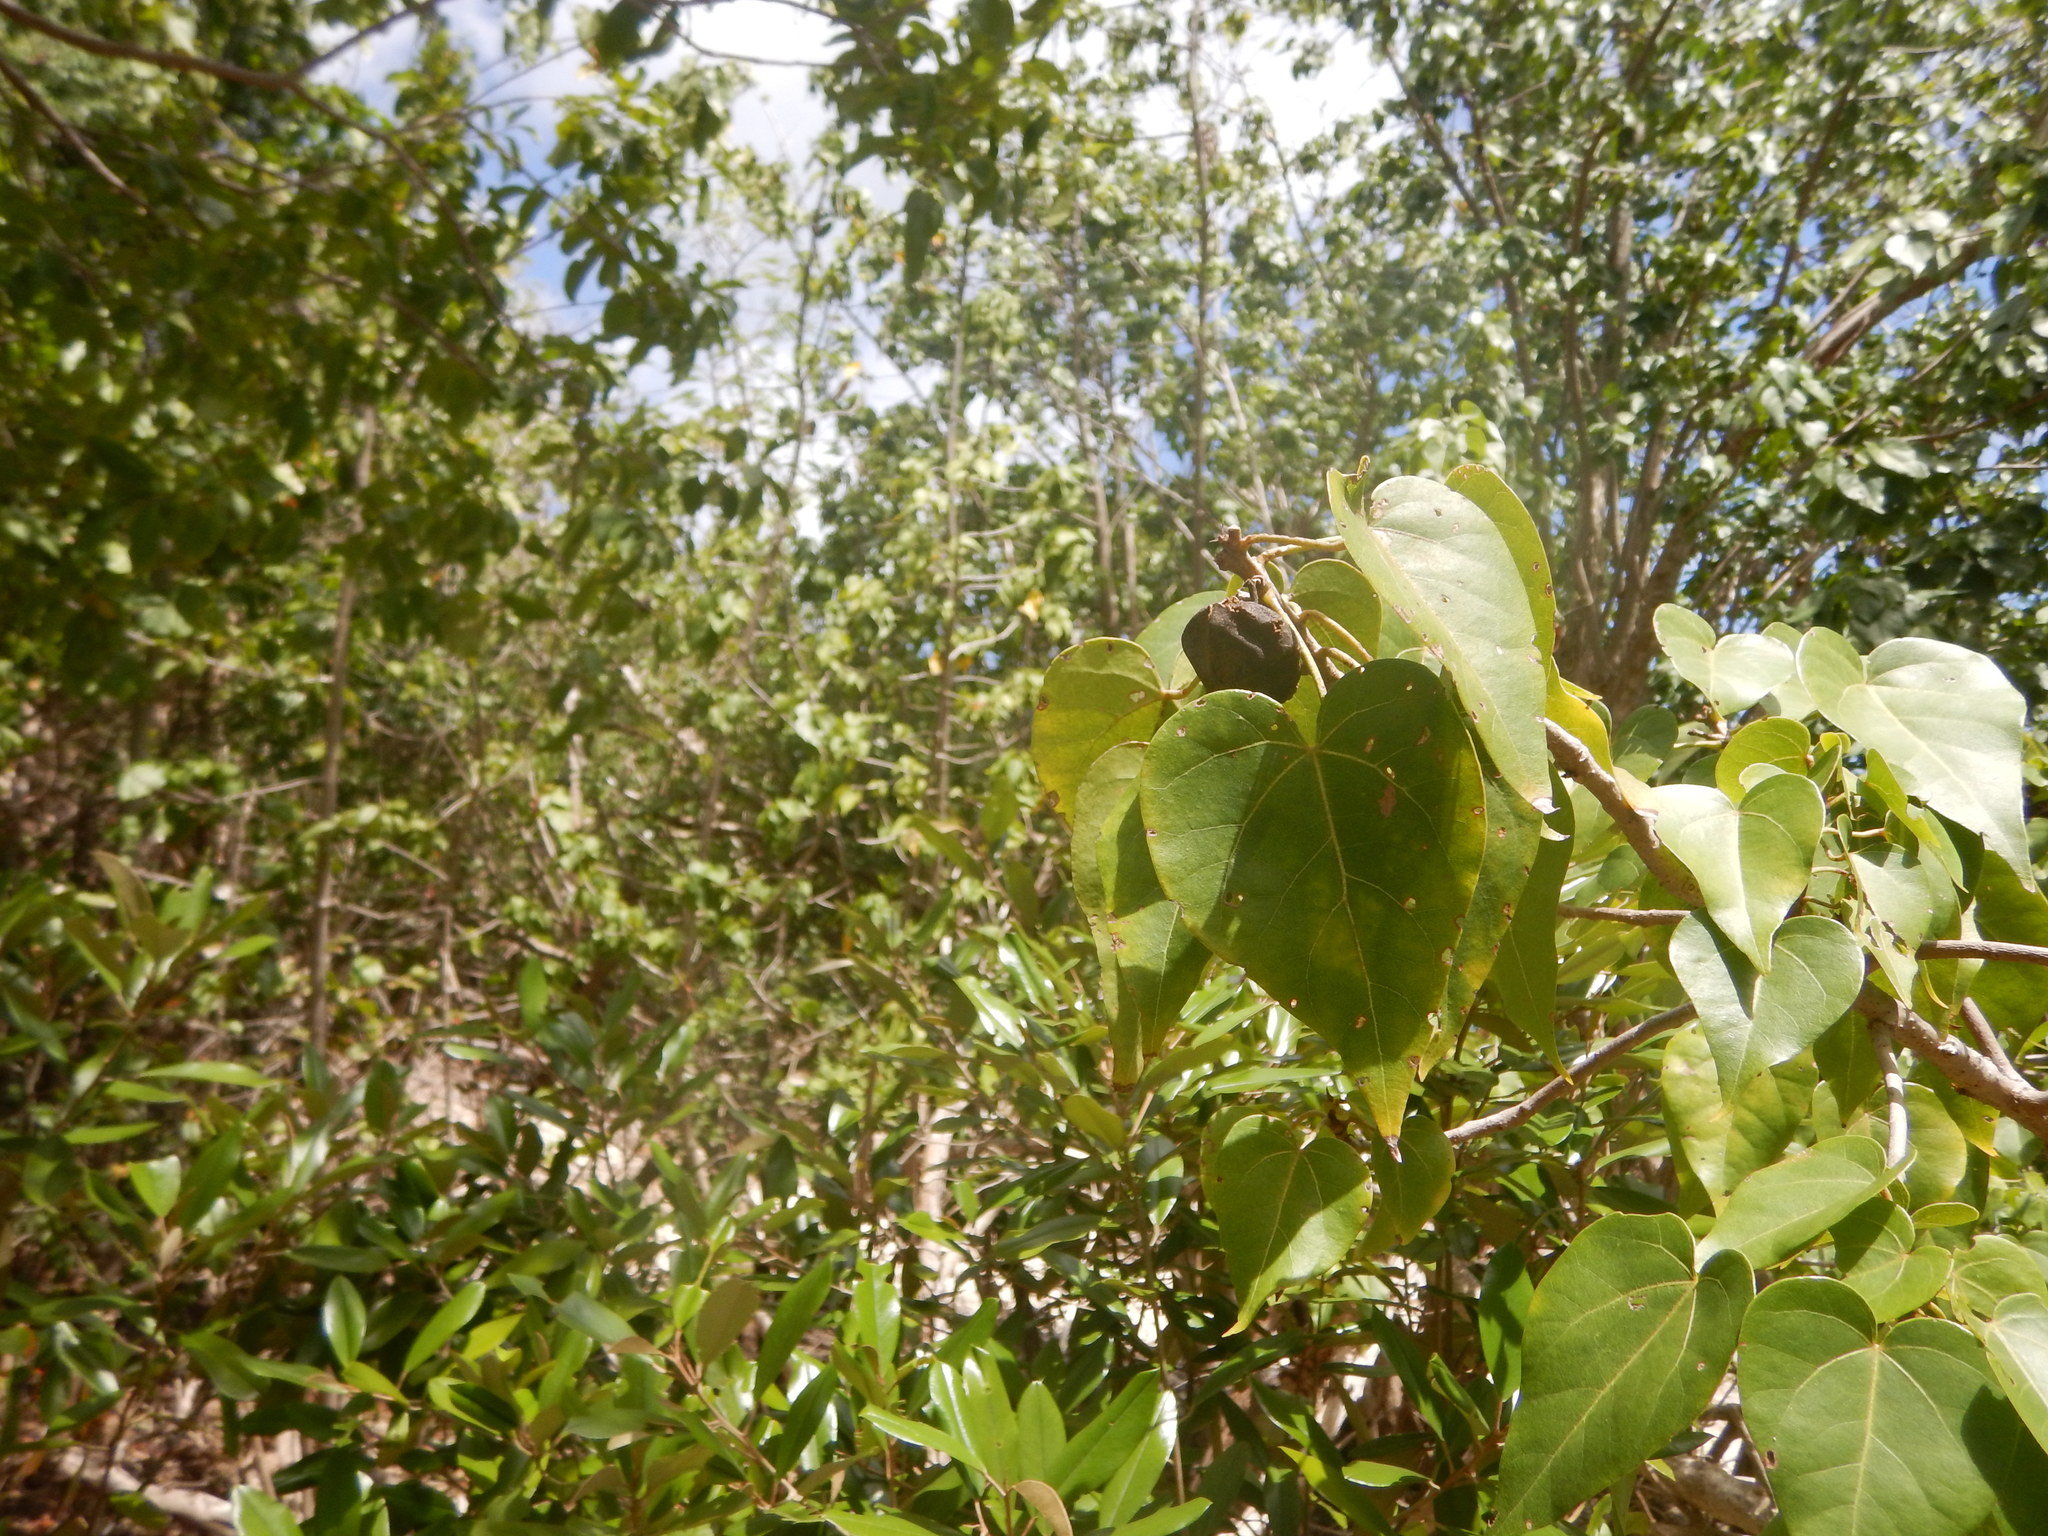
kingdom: Plantae
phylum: Tracheophyta
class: Magnoliopsida
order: Malvales
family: Malvaceae
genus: Thespesia
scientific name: Thespesia populnea
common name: Seaside mahoe
